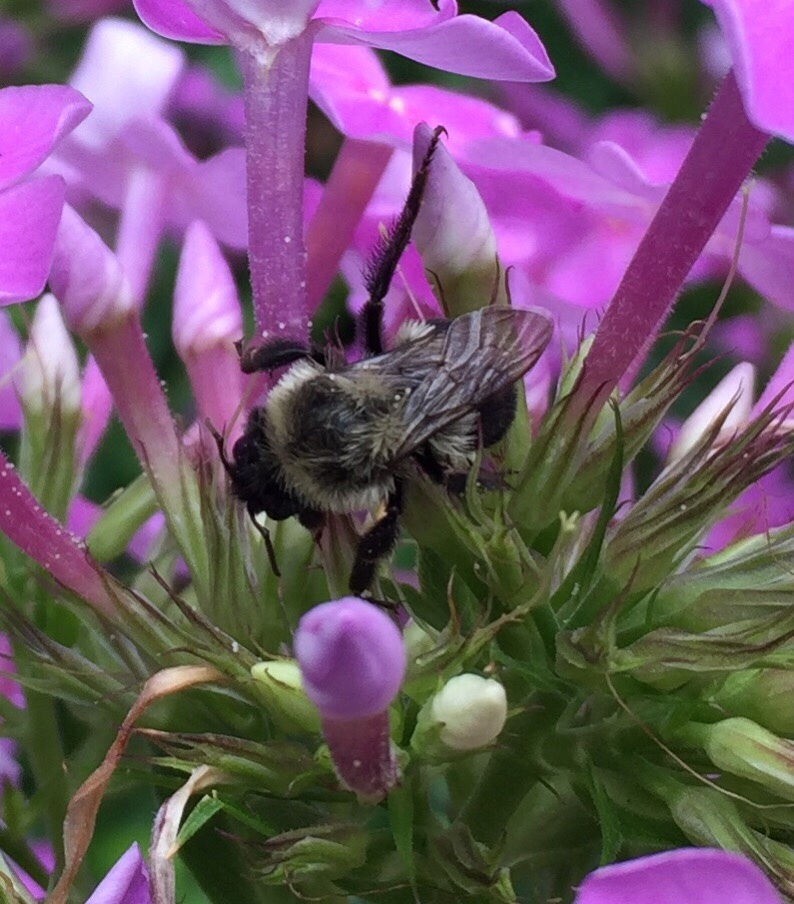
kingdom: Animalia
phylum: Arthropoda
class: Insecta
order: Hymenoptera
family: Apidae
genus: Bombus
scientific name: Bombus impatiens
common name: Common eastern bumble bee
